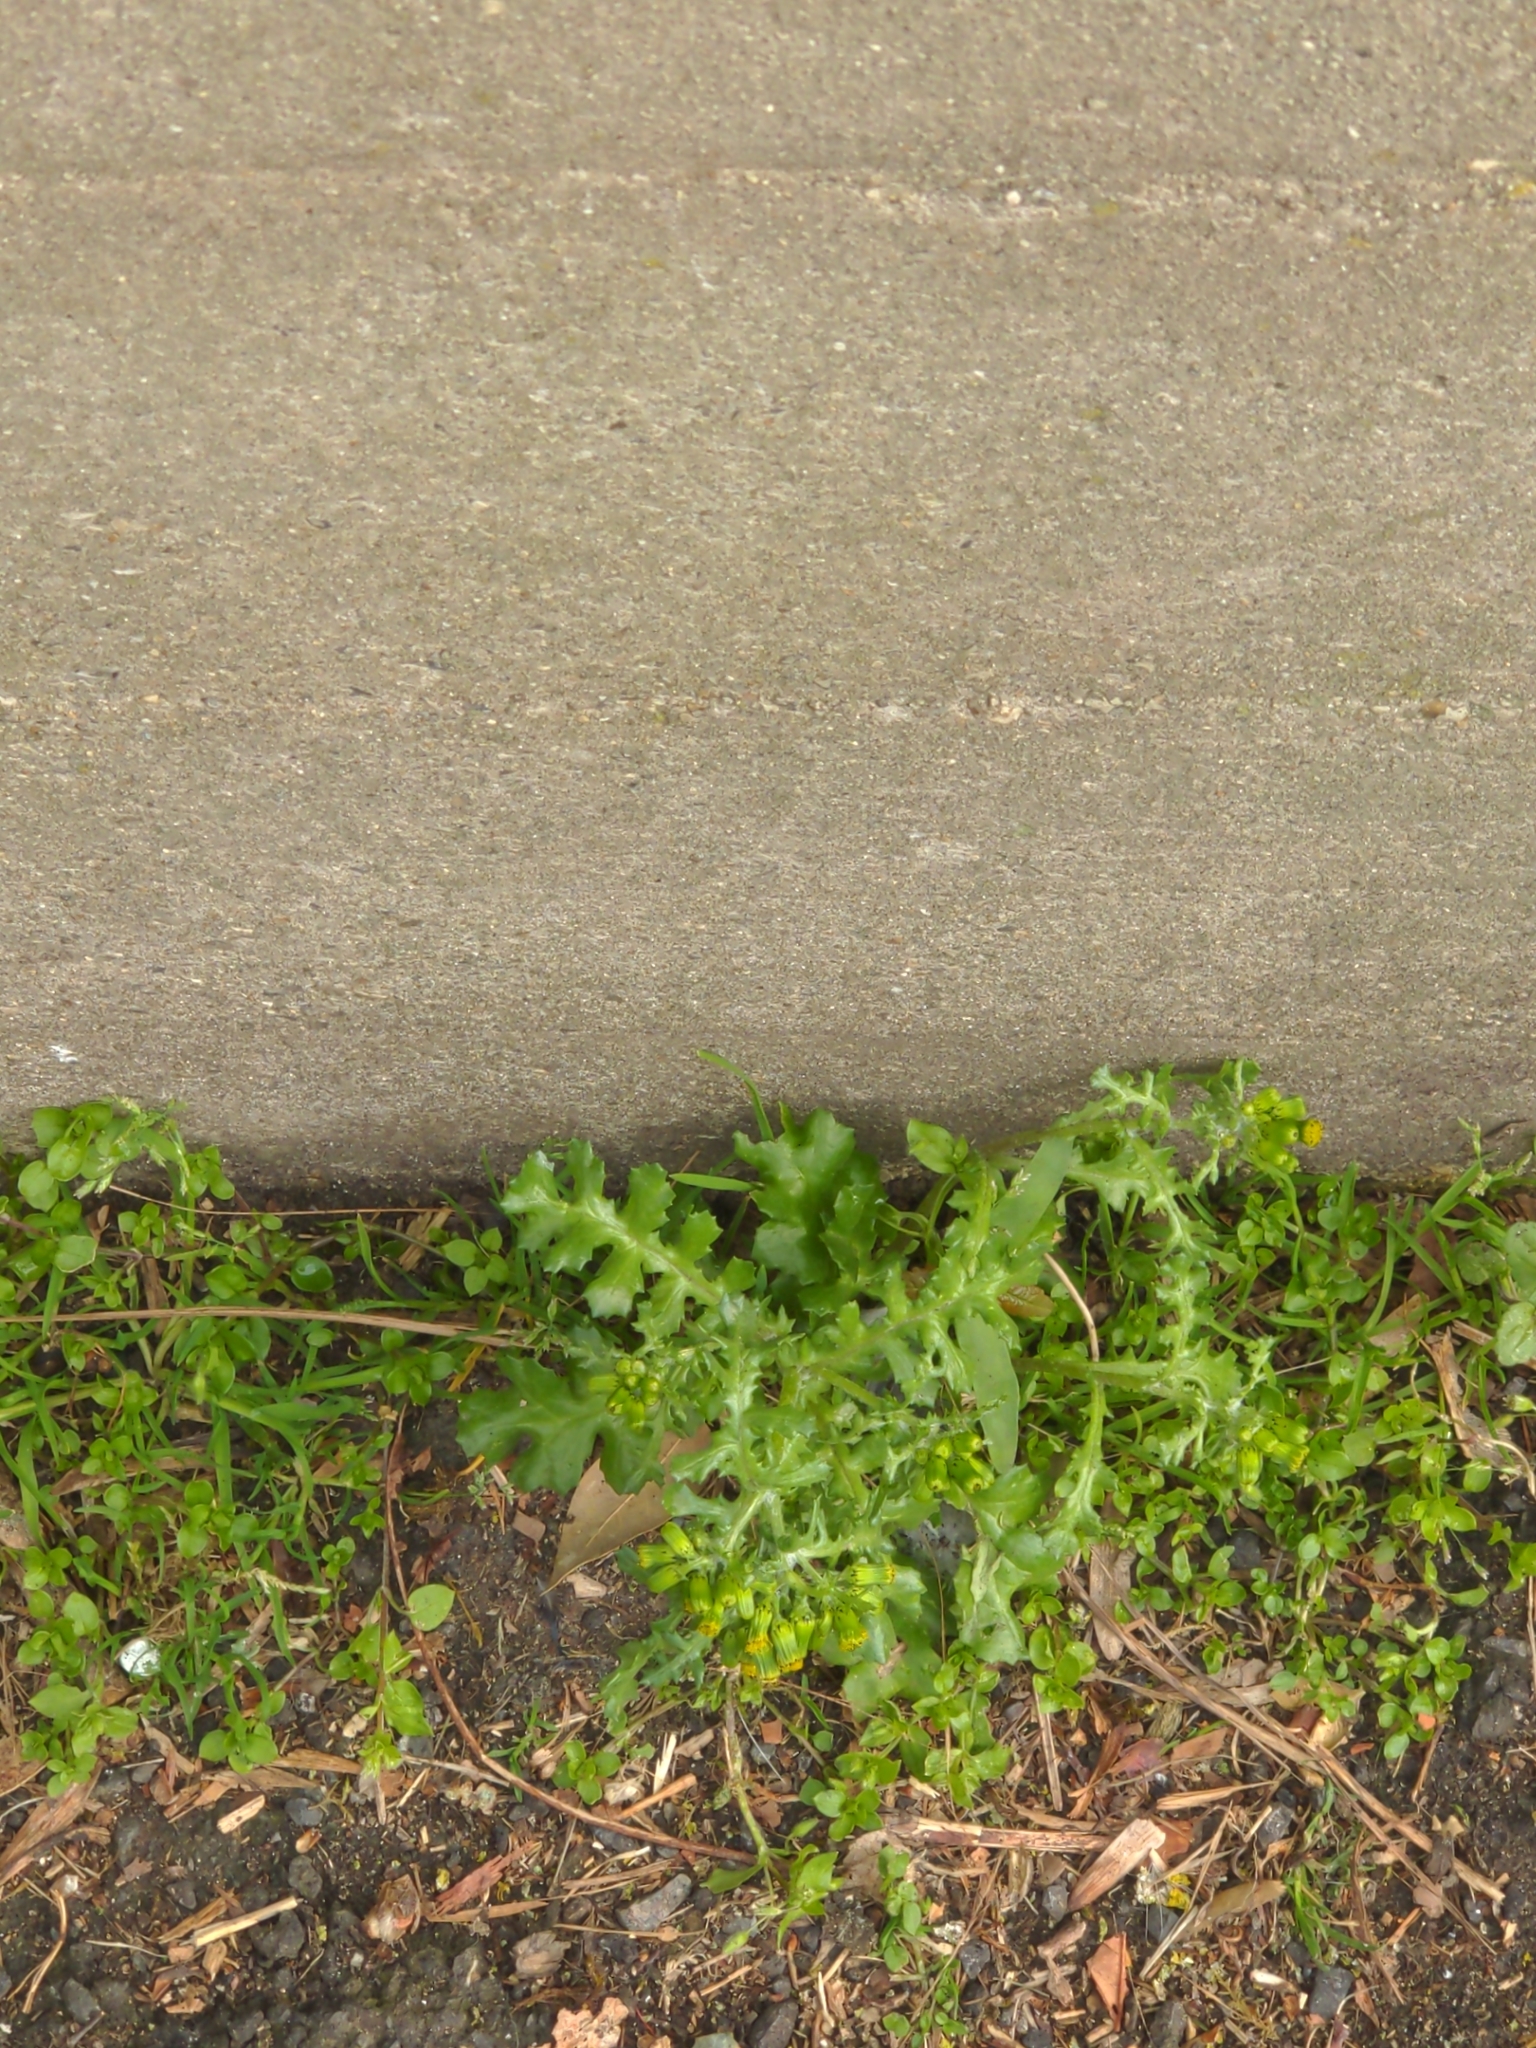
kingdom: Plantae
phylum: Tracheophyta
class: Magnoliopsida
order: Asterales
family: Asteraceae
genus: Senecio
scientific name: Senecio vulgaris
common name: Old-man-in-the-spring
